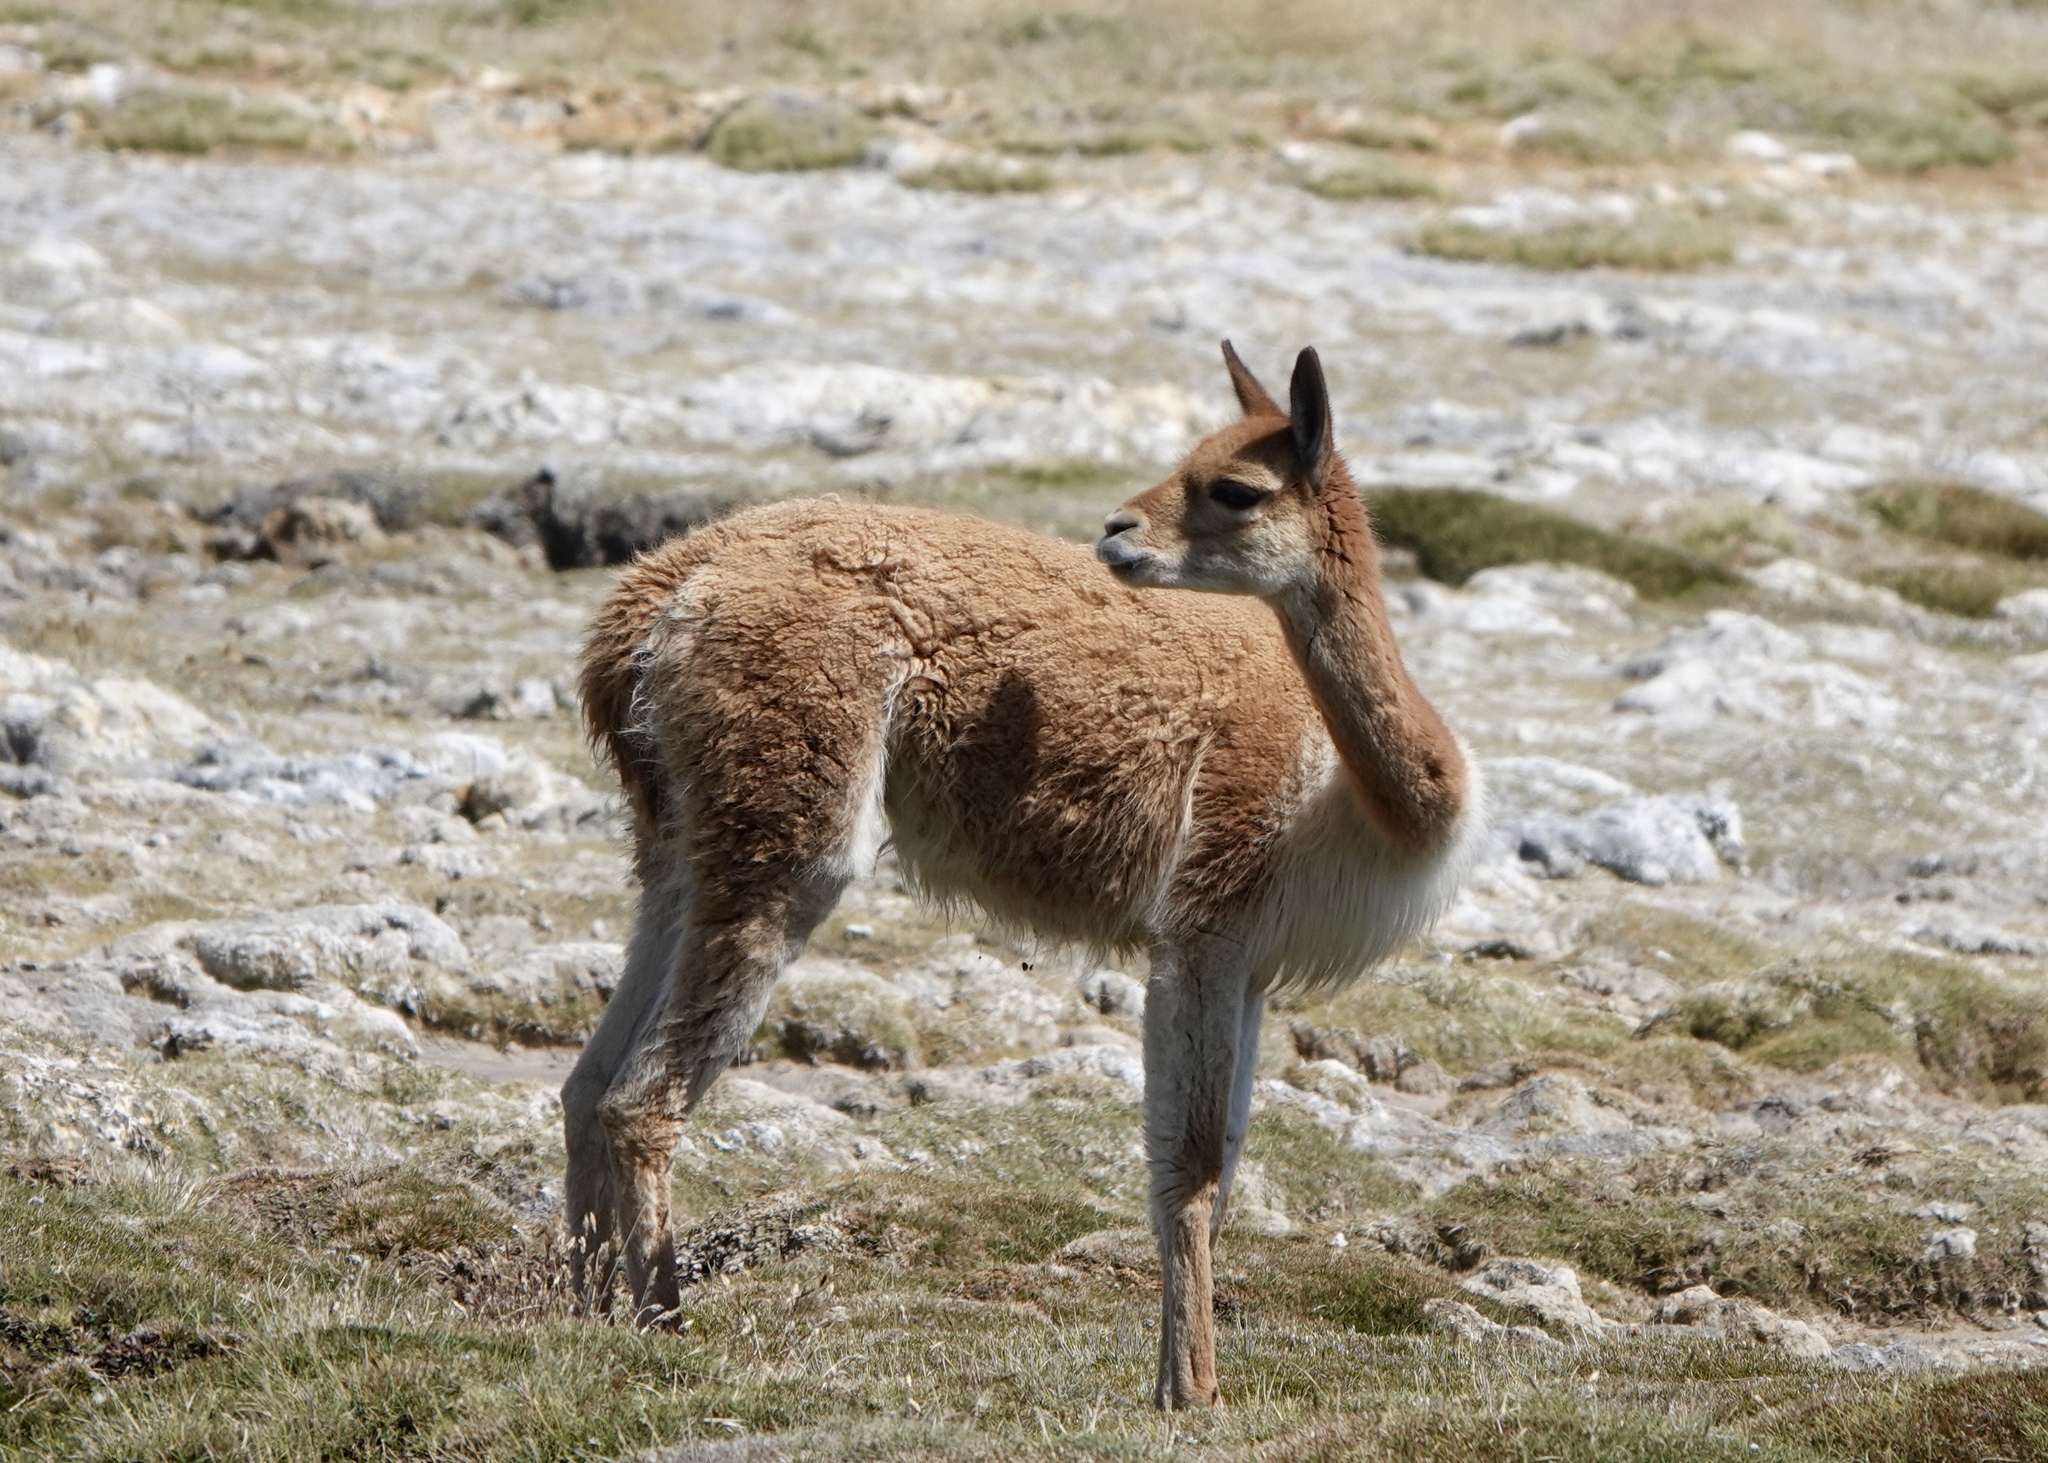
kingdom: Animalia
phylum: Chordata
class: Mammalia
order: Artiodactyla
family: Camelidae
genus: Vicugna
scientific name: Vicugna vicugna
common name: Vicugna
